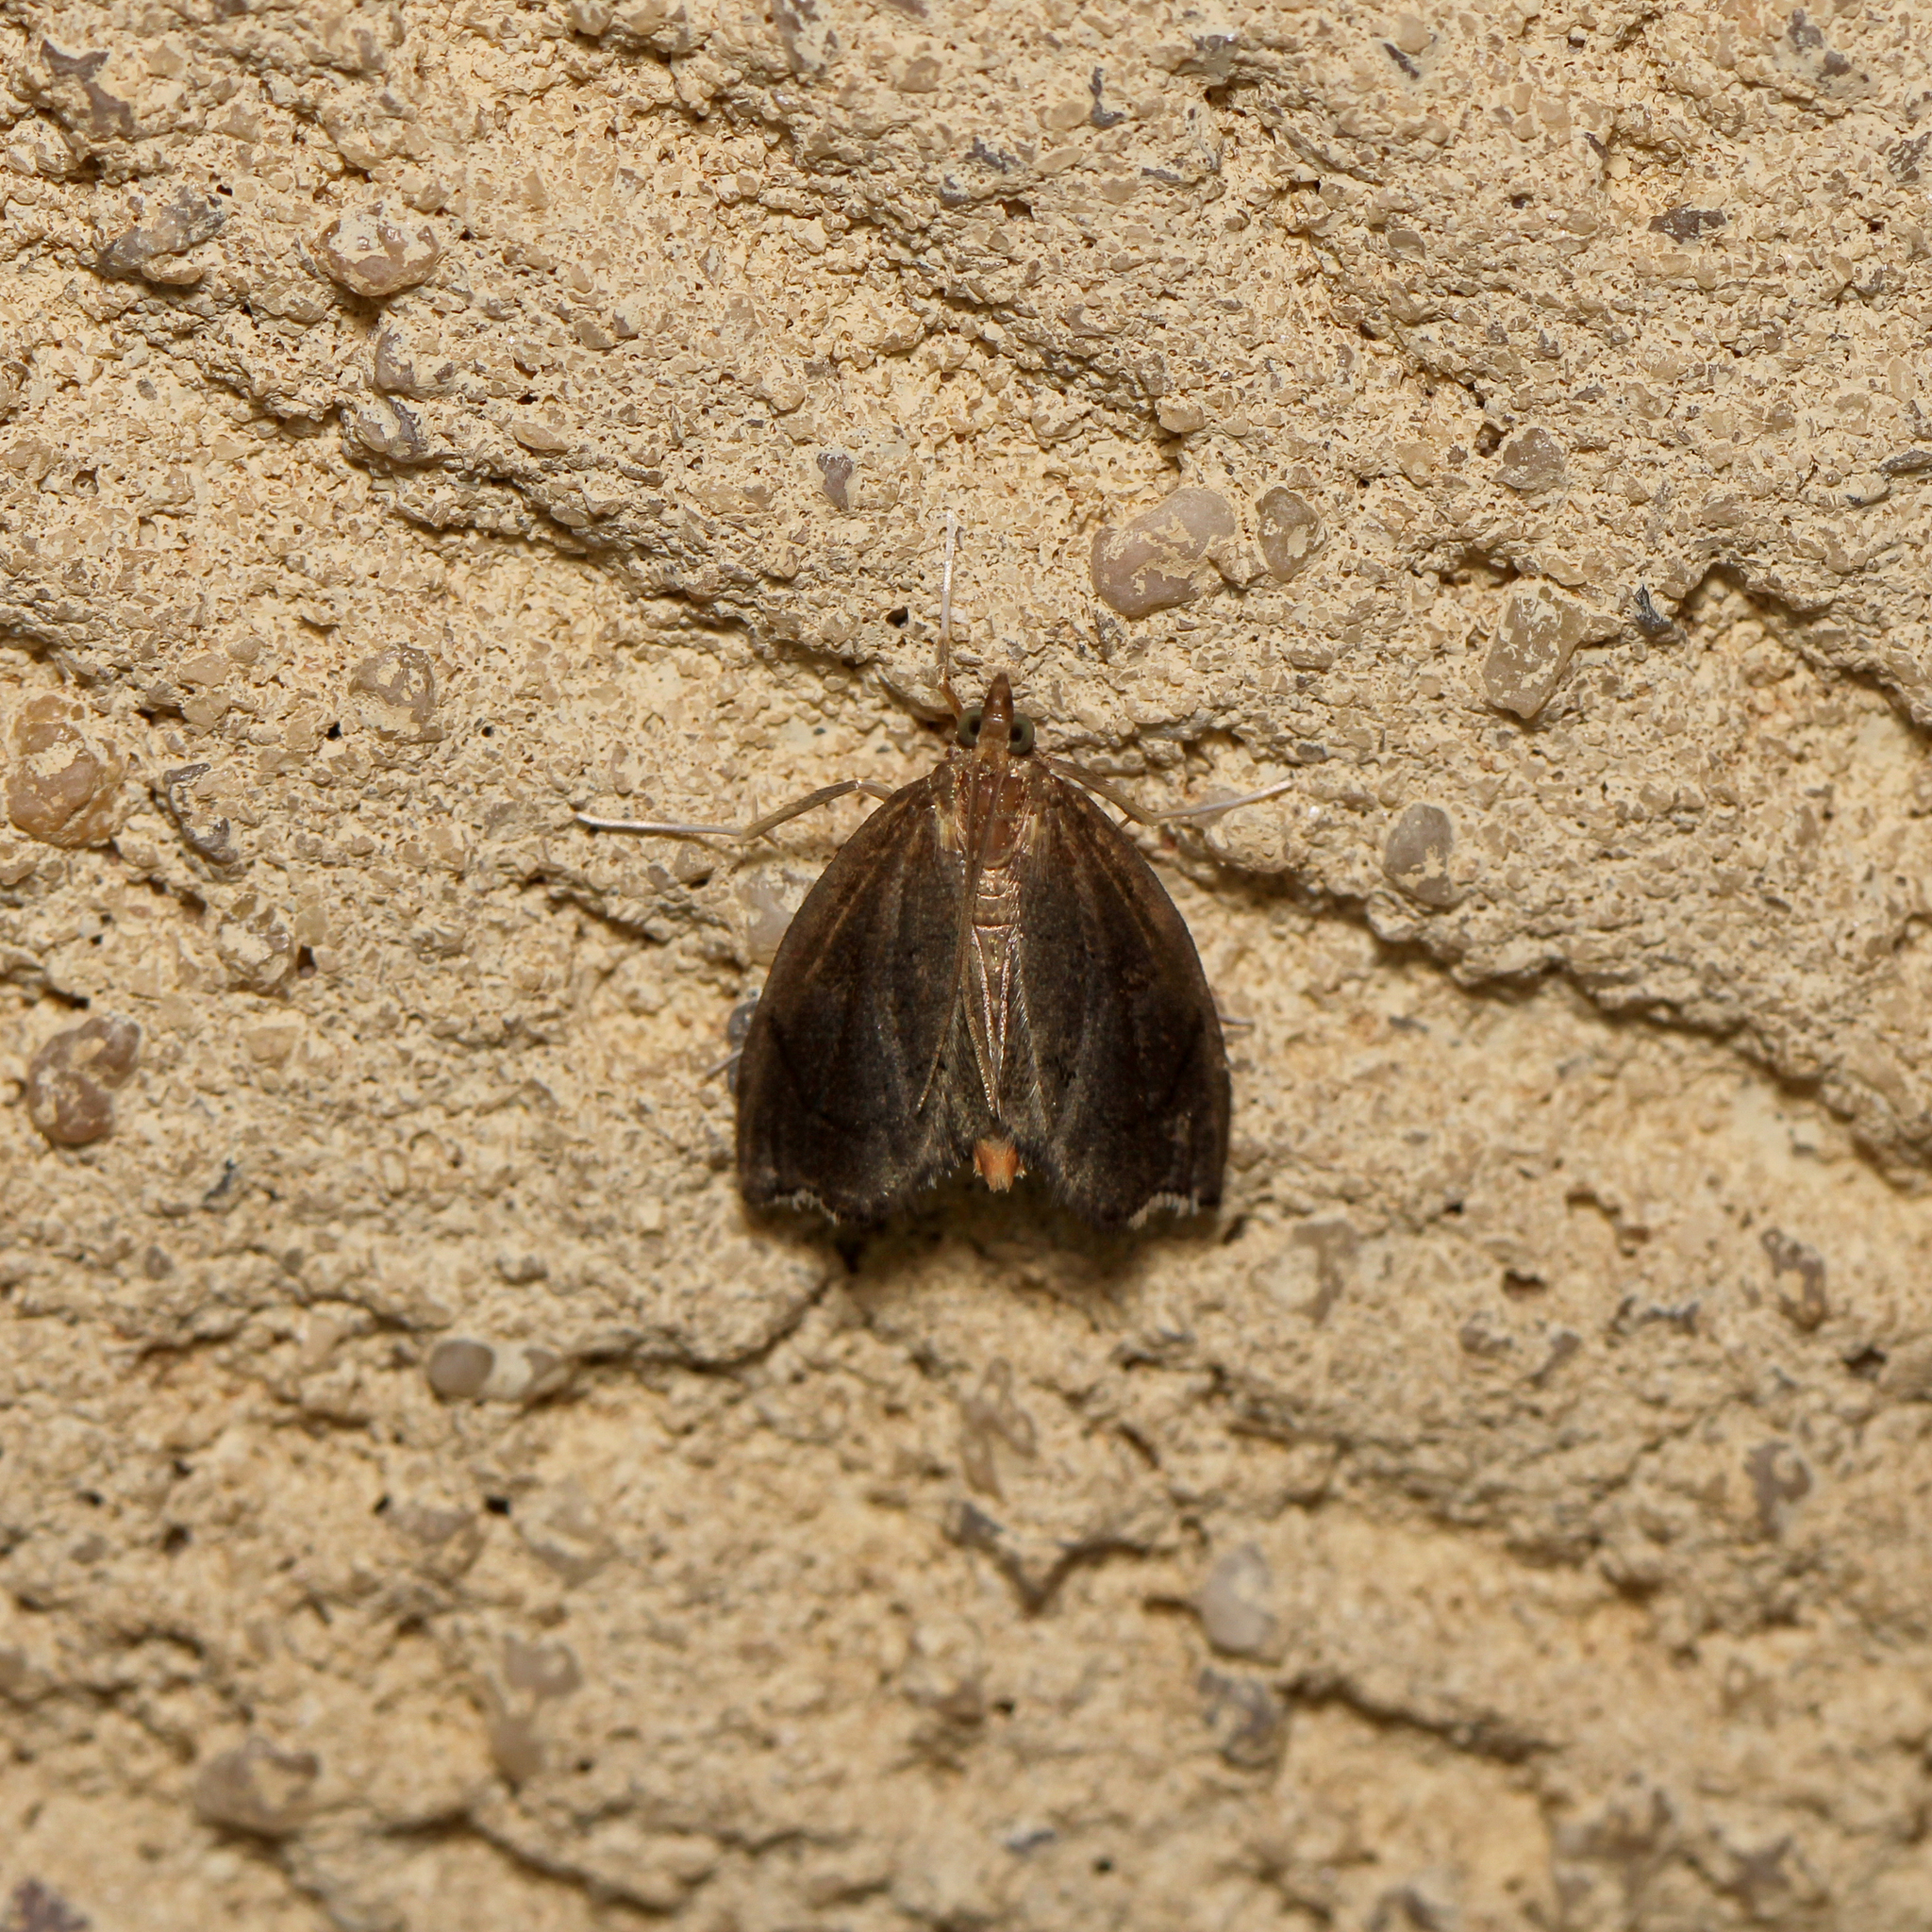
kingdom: Animalia
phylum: Arthropoda
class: Insecta
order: Lepidoptera
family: Crambidae
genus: Perispasta
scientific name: Perispasta caeculalis
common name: Titian peale's moth
